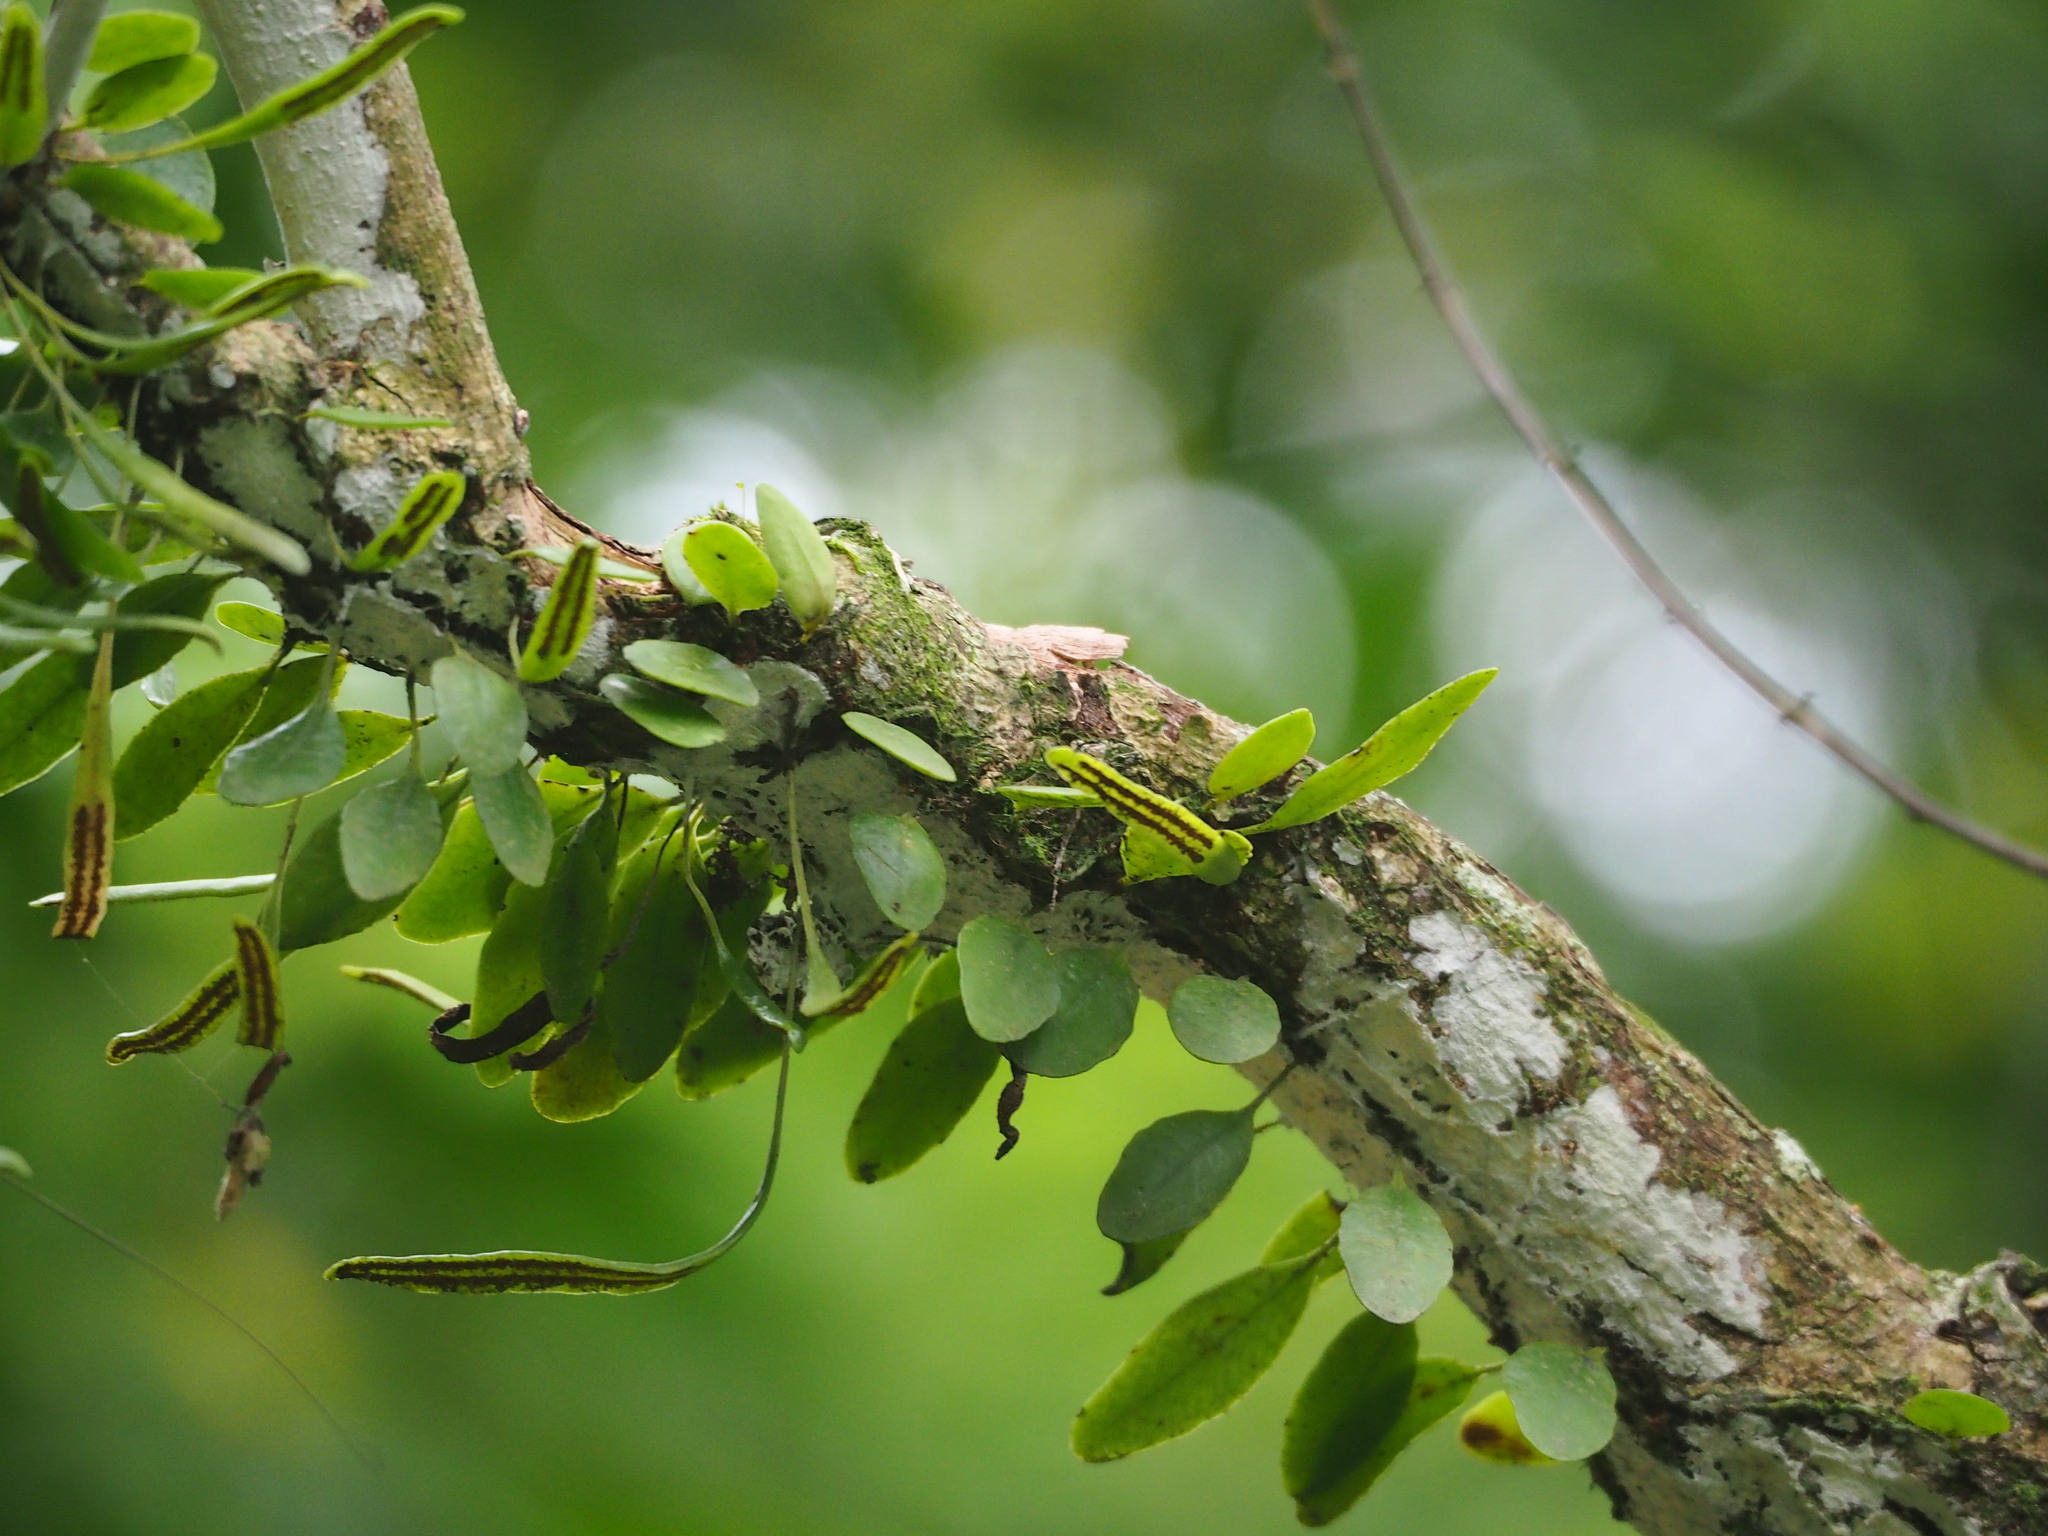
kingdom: Plantae
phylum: Tracheophyta
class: Polypodiopsida
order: Polypodiales
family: Polypodiaceae
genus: Lepisorus
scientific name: Lepisorus microphyllus
